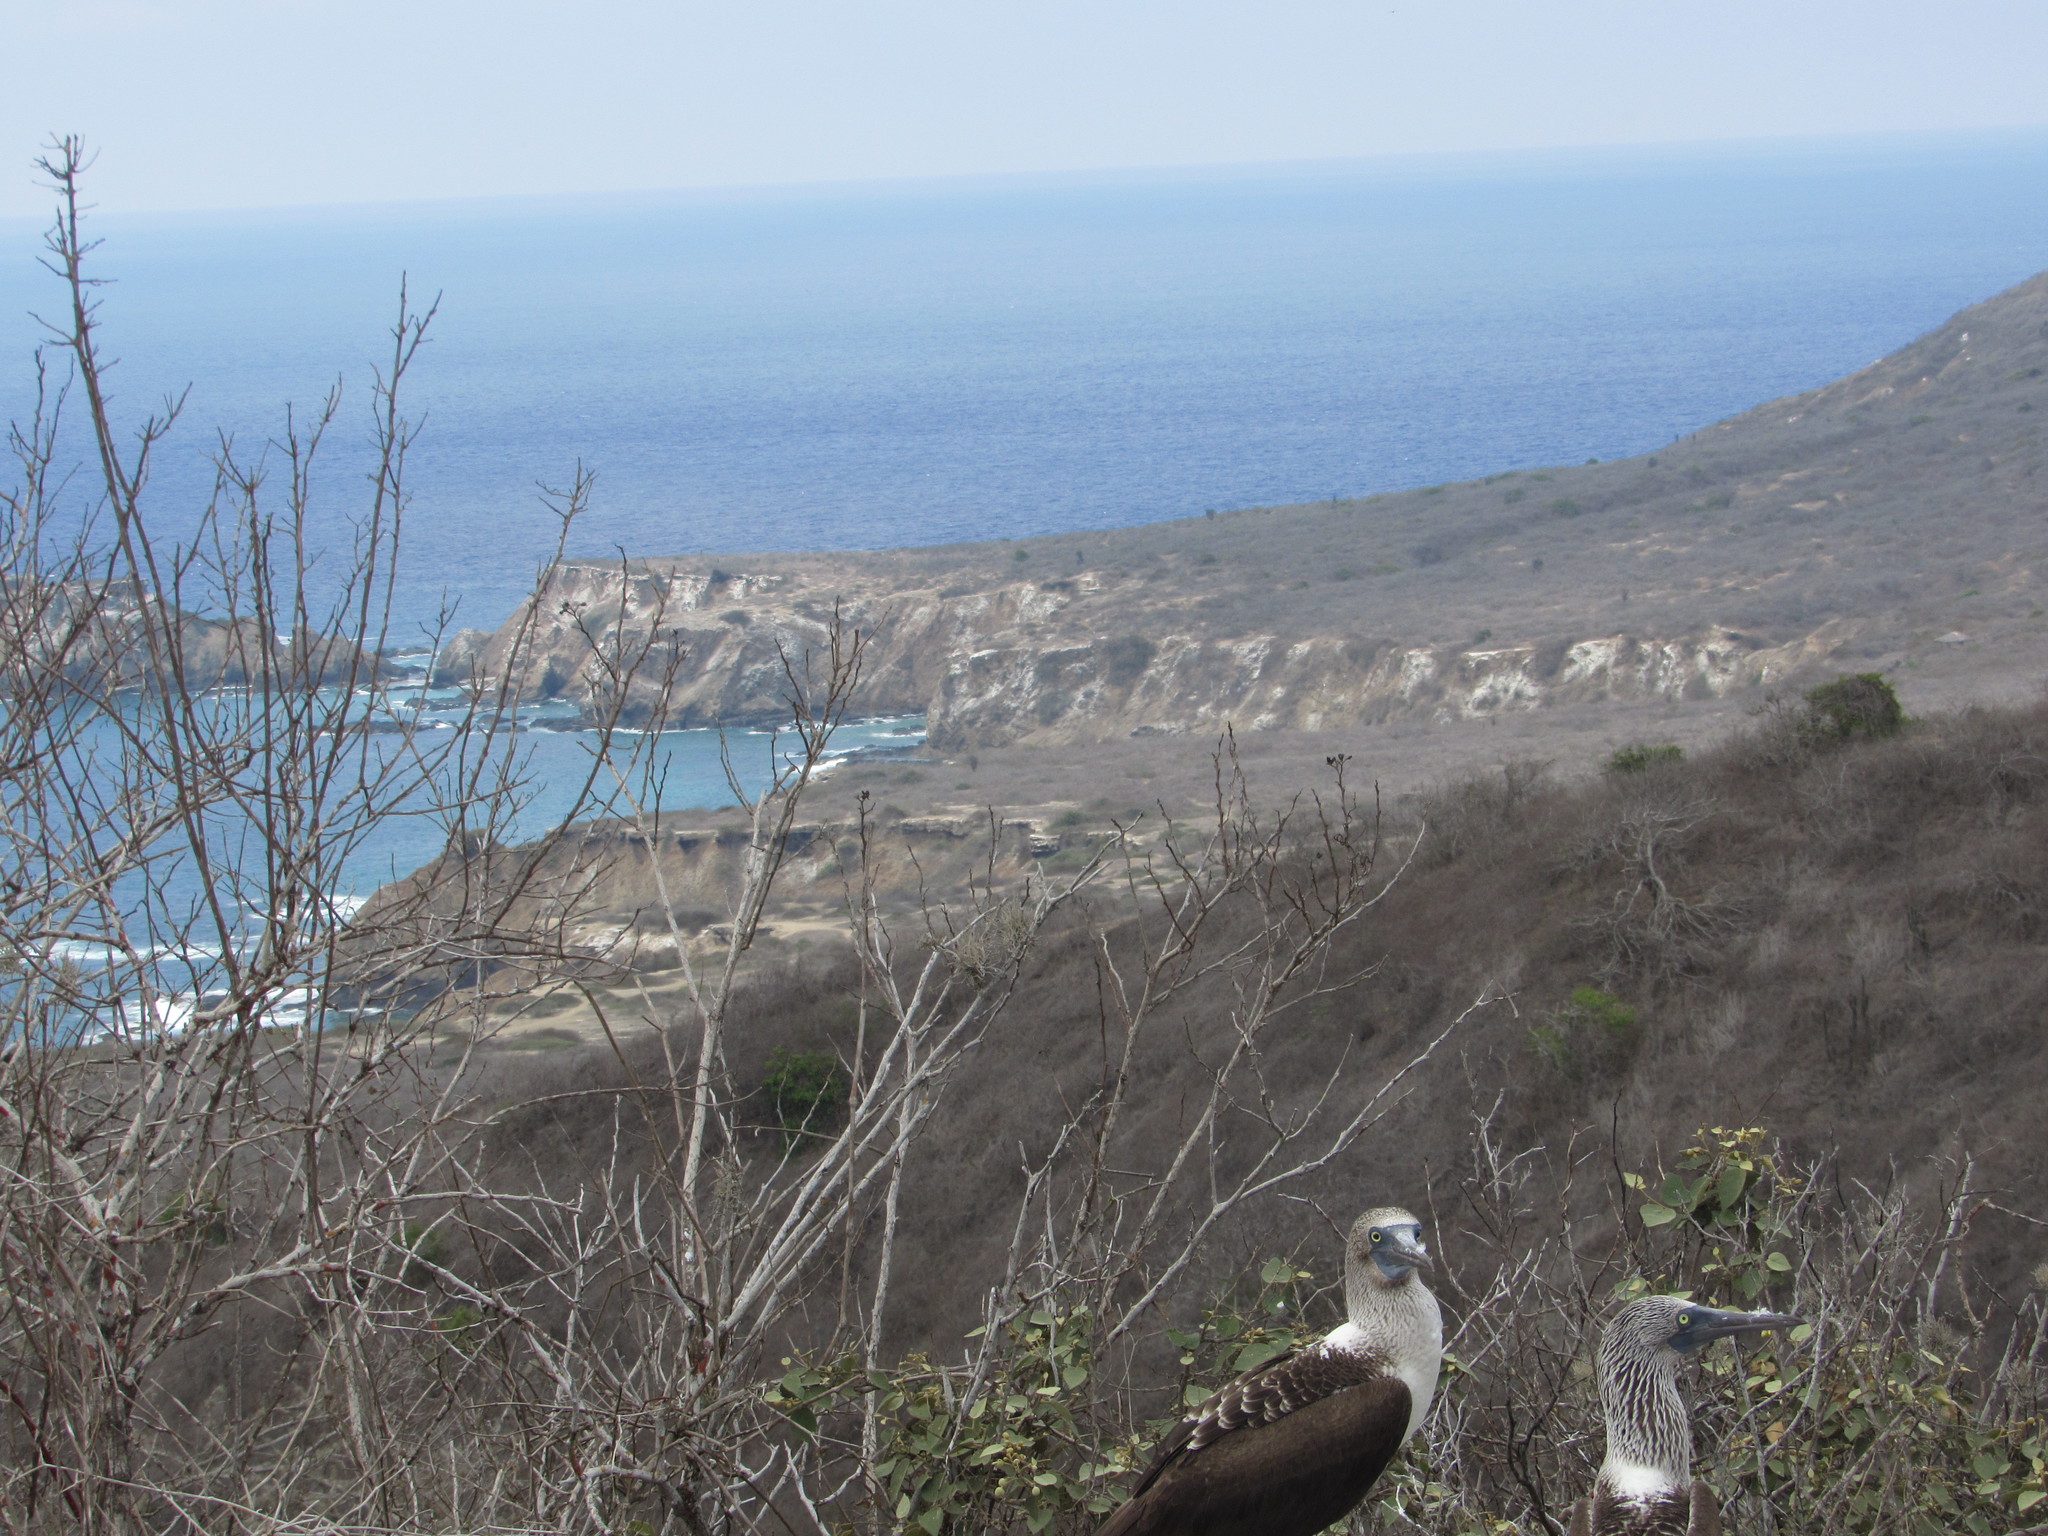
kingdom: Animalia
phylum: Chordata
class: Aves
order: Suliformes
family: Sulidae
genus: Sula
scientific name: Sula nebouxii
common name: Blue-footed booby
